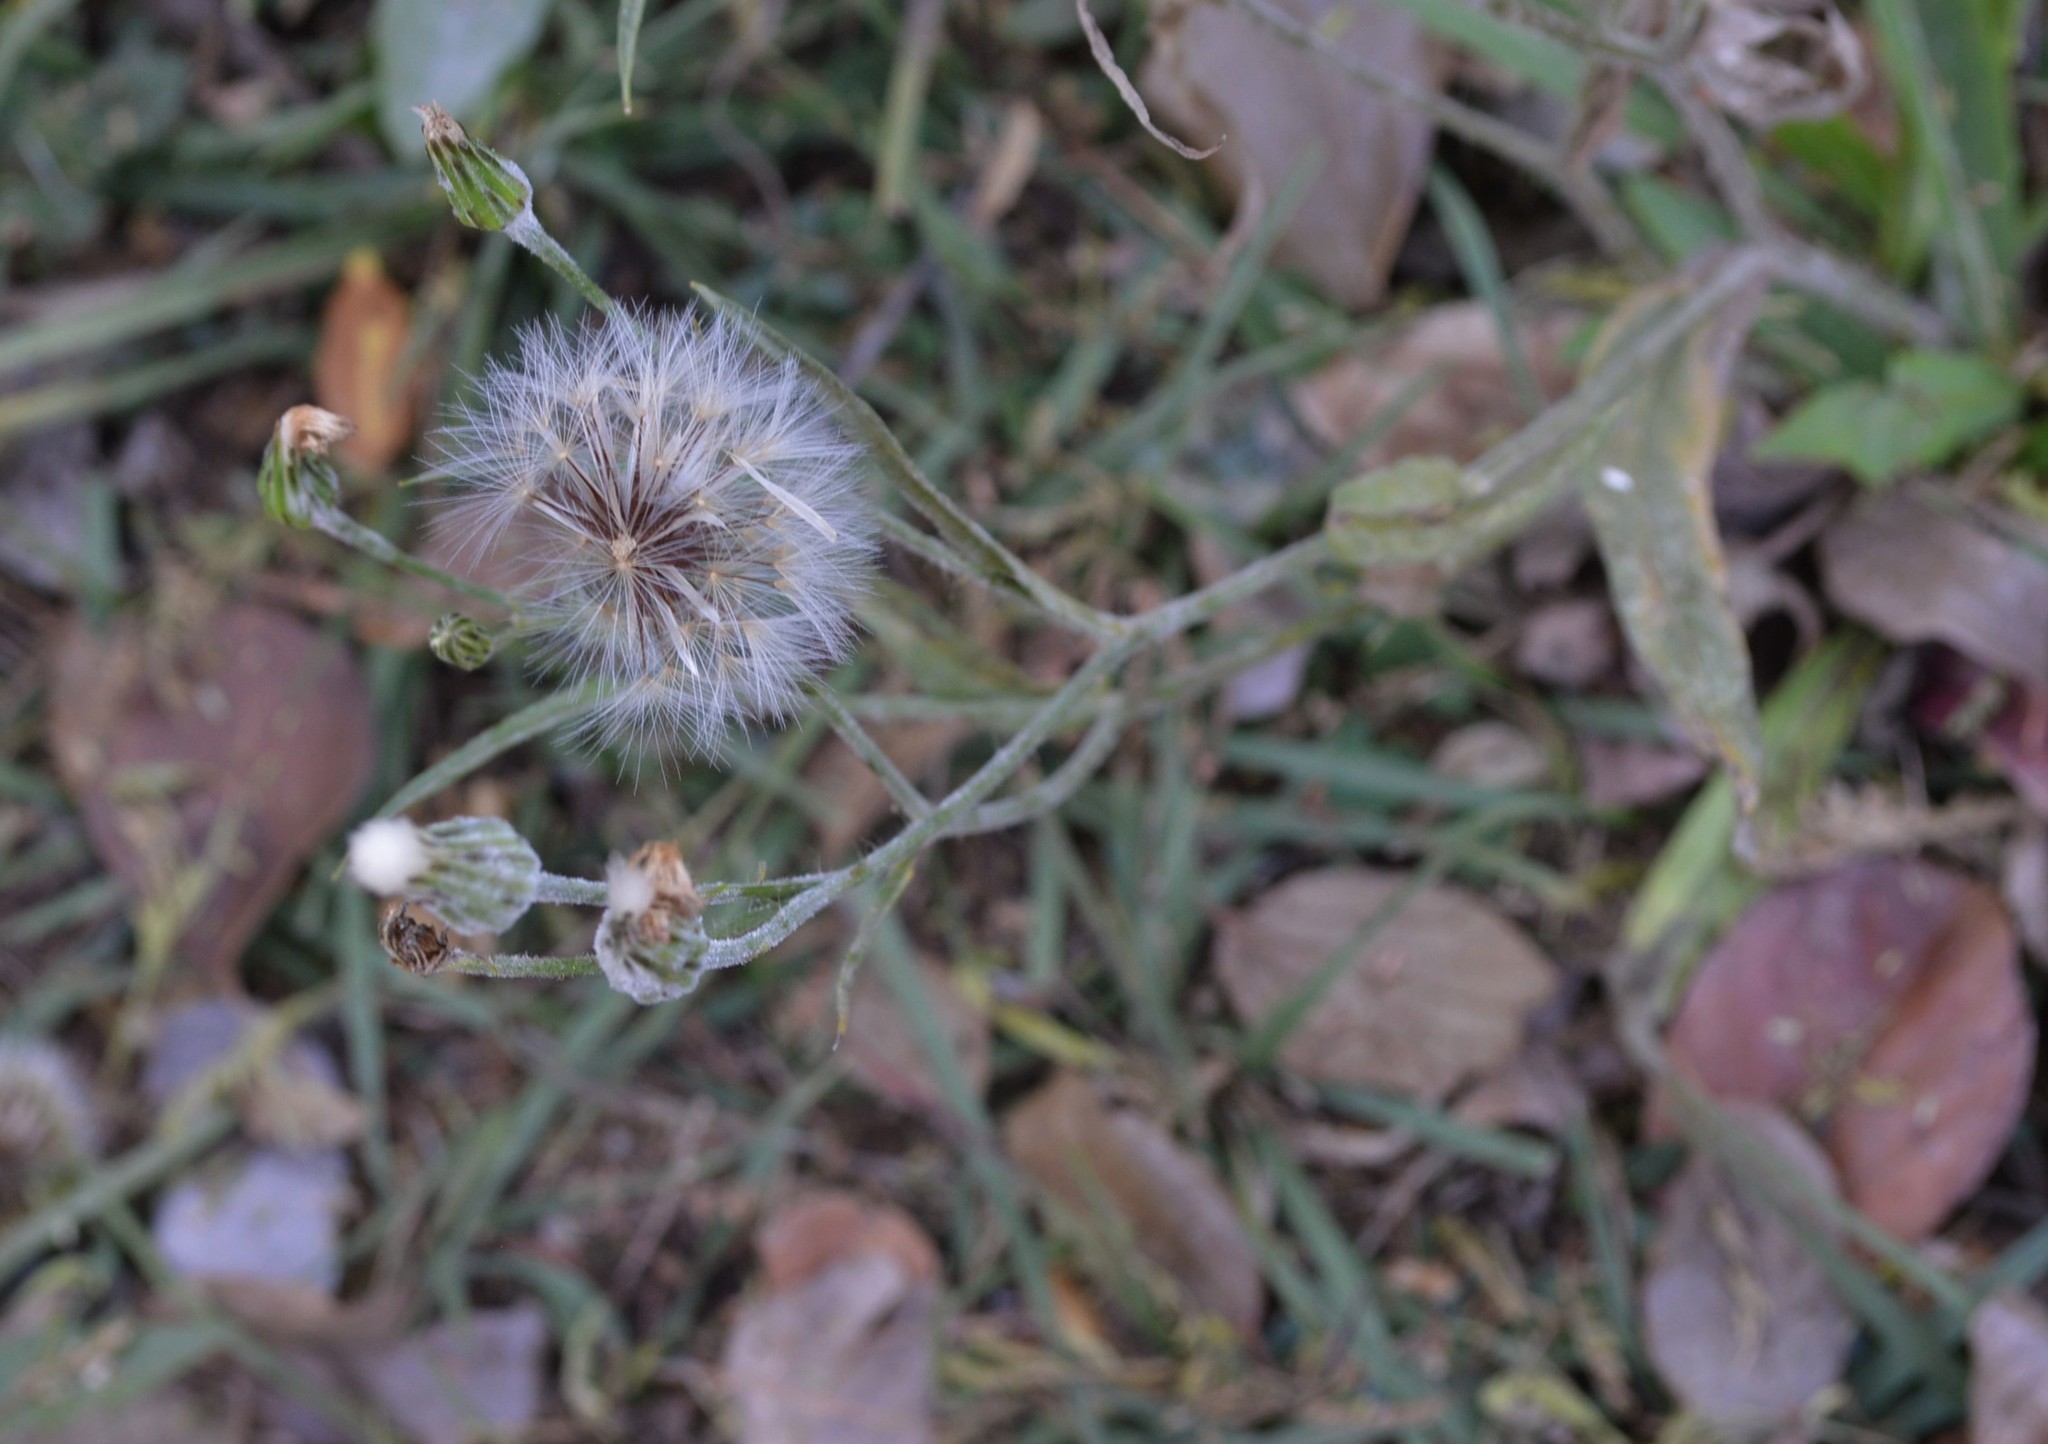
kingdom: Plantae
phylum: Tracheophyta
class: Magnoliopsida
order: Asterales
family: Asteraceae
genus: Hypochaeris
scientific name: Hypochaeris albiflora
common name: White flatweed
